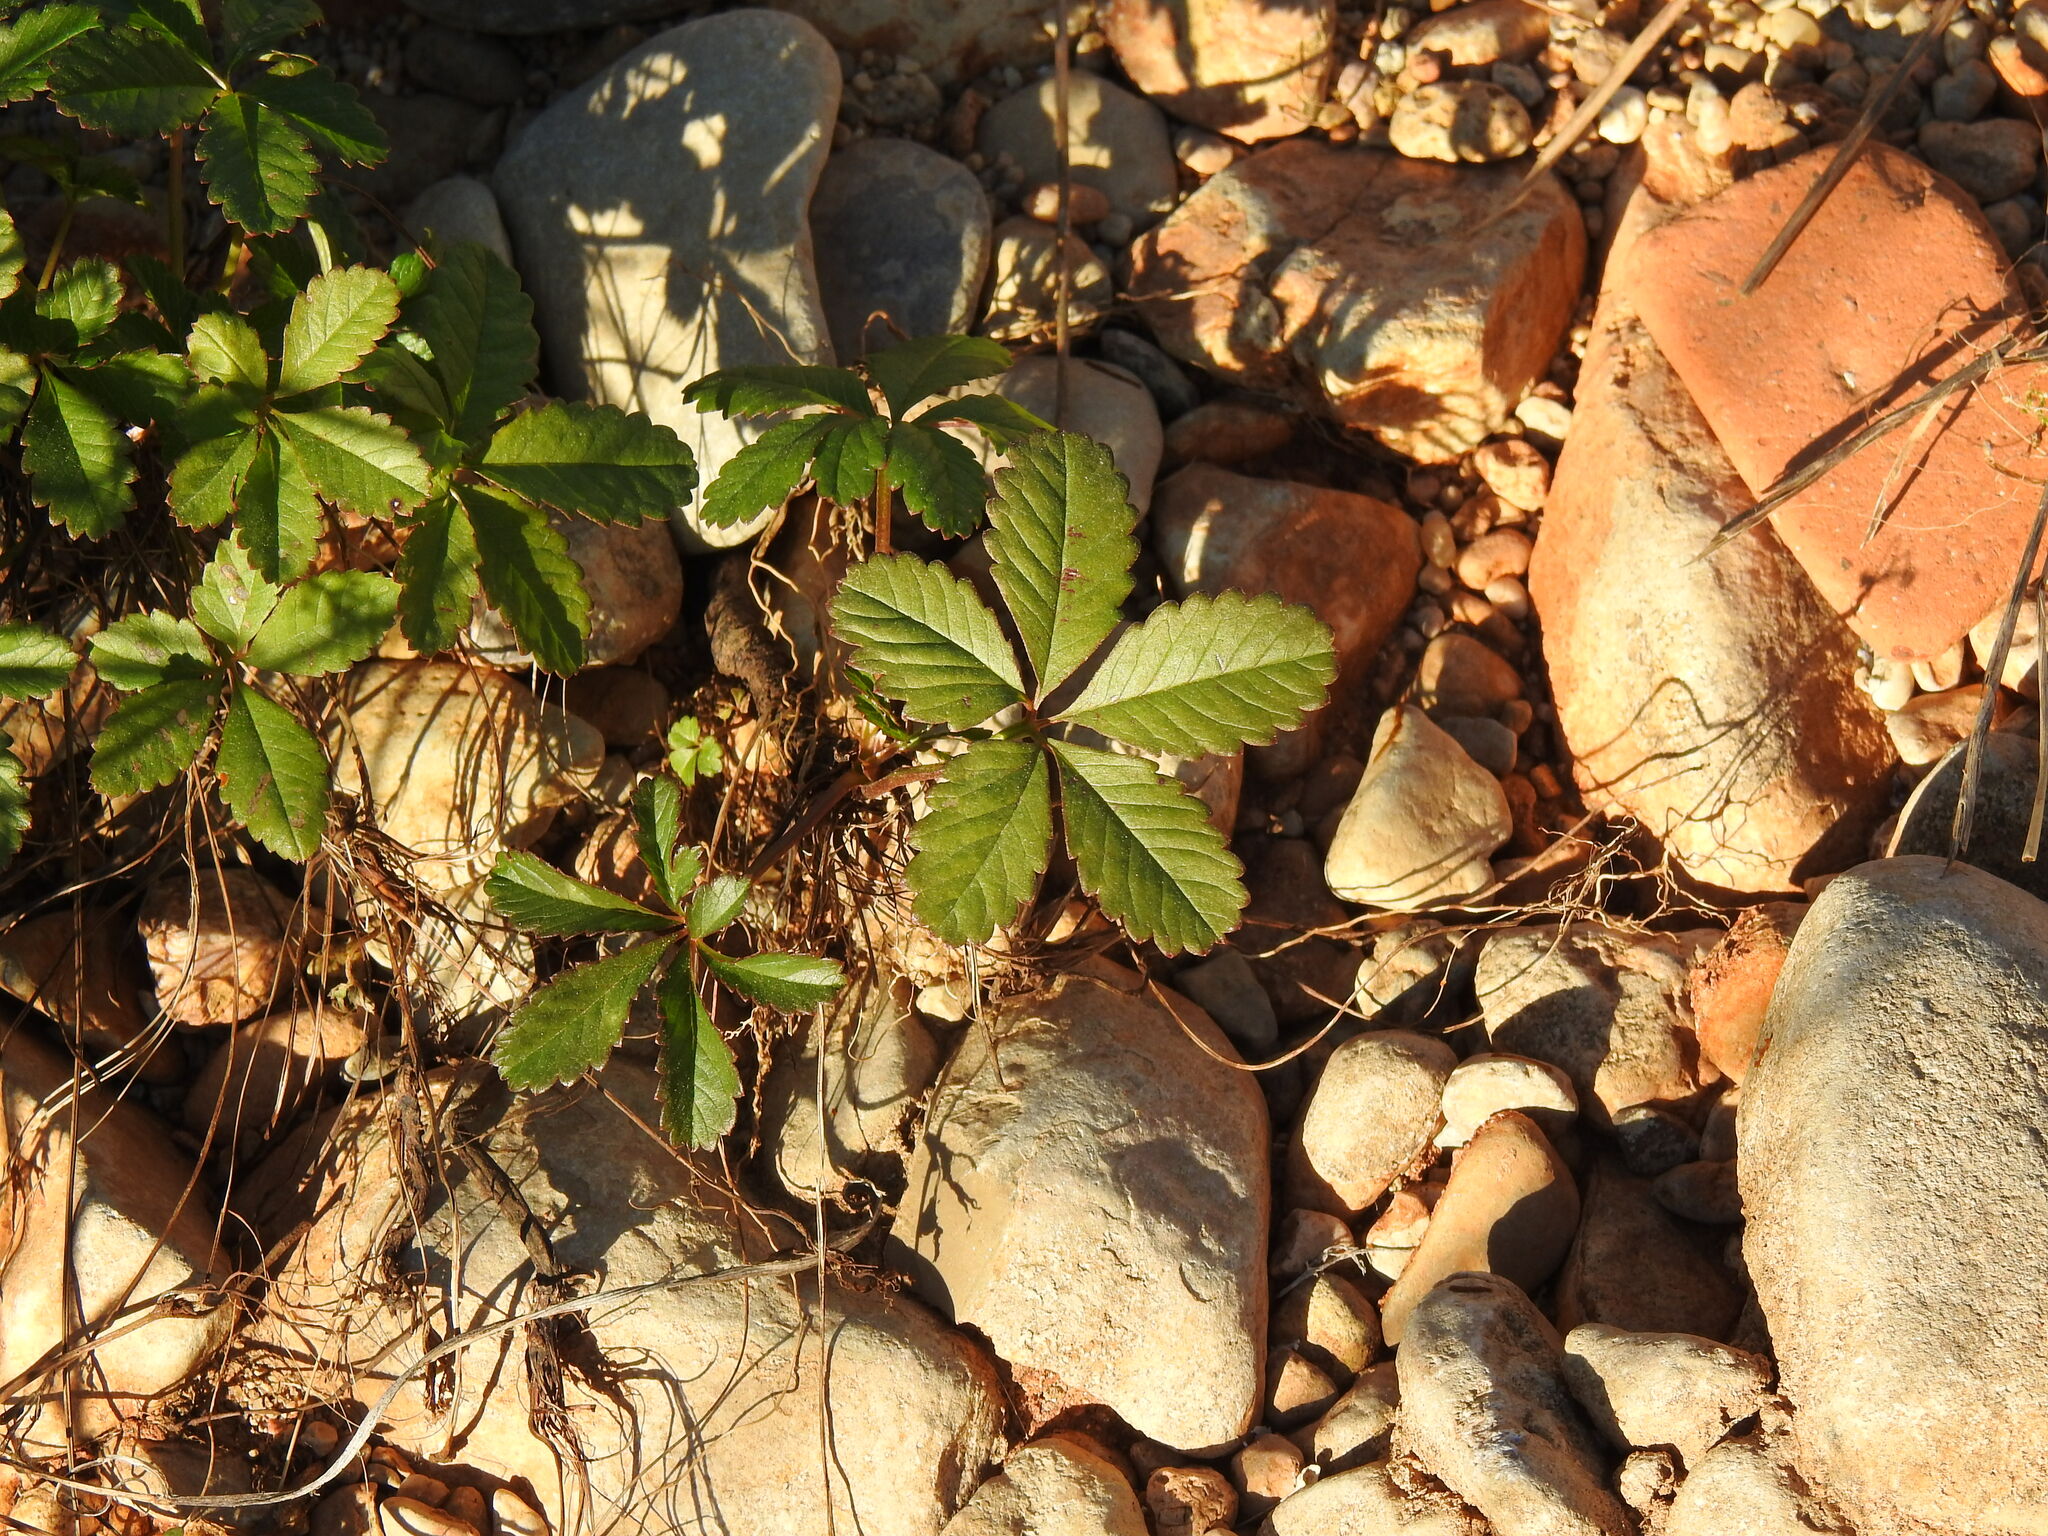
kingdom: Plantae
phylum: Tracheophyta
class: Magnoliopsida
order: Rosales
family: Rosaceae
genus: Potentilla
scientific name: Potentilla reptans
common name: Creeping cinquefoil
